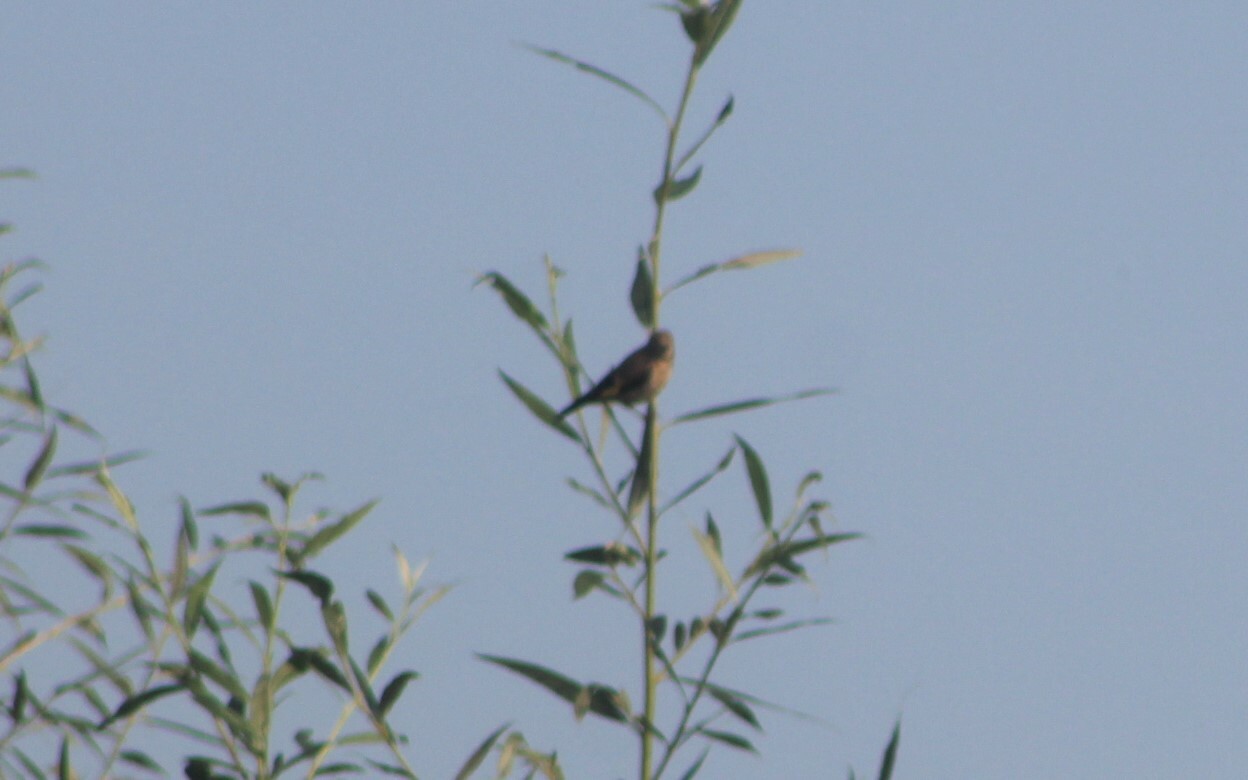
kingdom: Animalia
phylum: Chordata
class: Aves
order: Passeriformes
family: Fringillidae
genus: Linaria
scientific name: Linaria cannabina
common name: Common linnet
